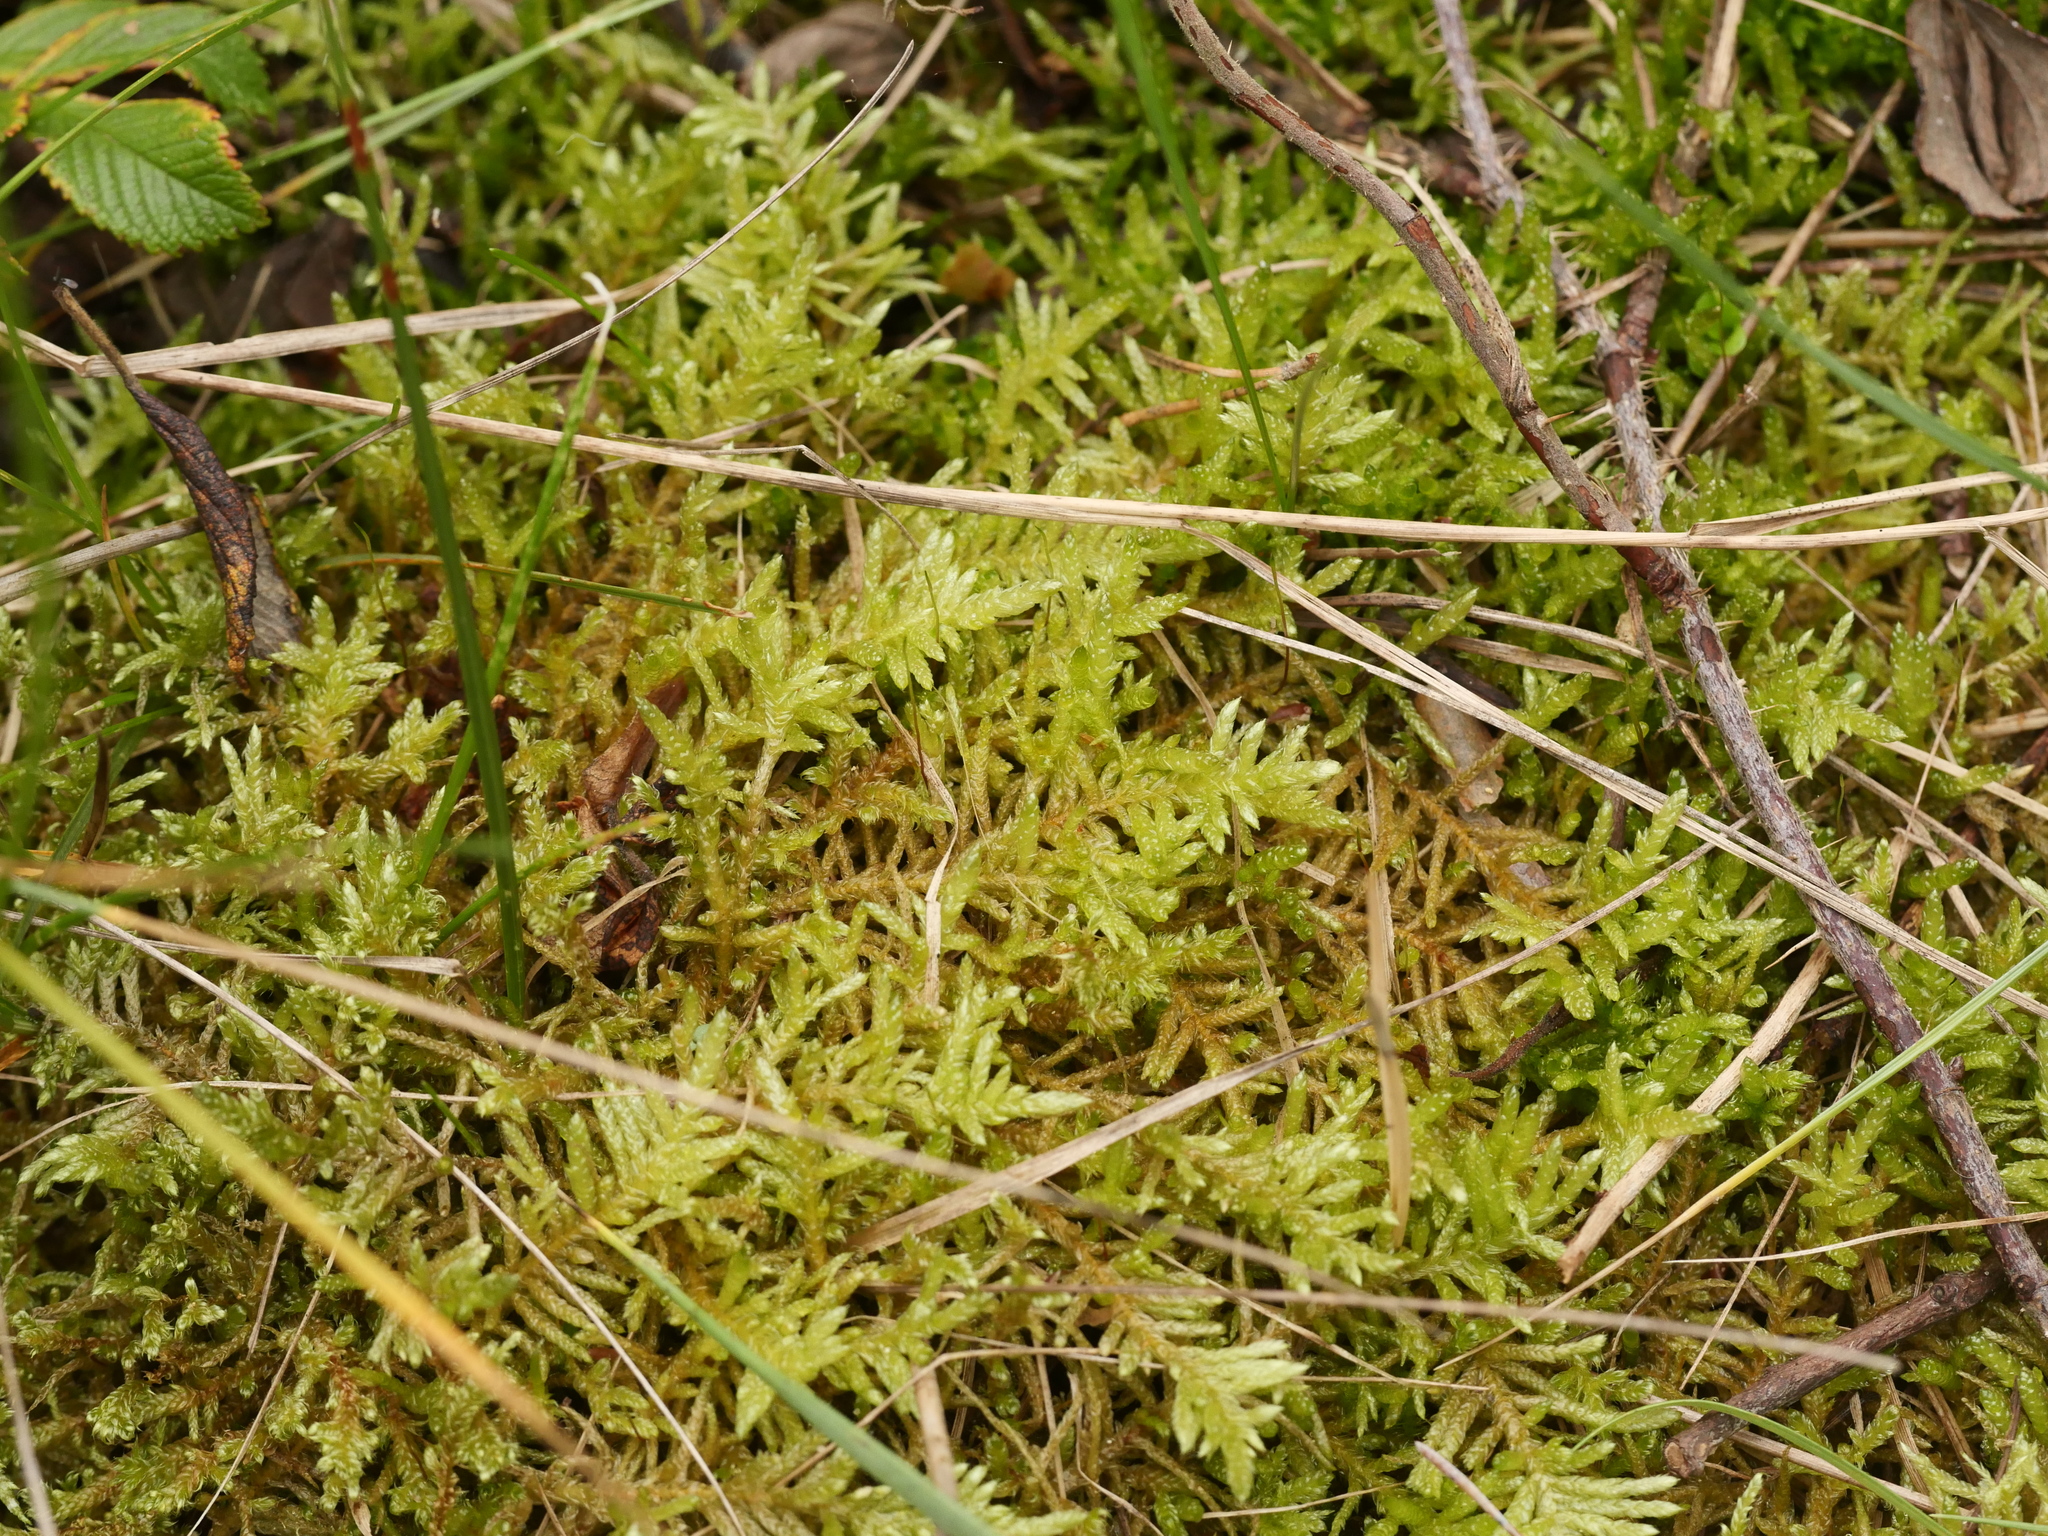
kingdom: Plantae
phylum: Bryophyta
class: Bryopsida
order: Hypnales
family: Brachytheciaceae
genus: Pseudoscleropodium
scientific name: Pseudoscleropodium purum
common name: Neat feather-moss
